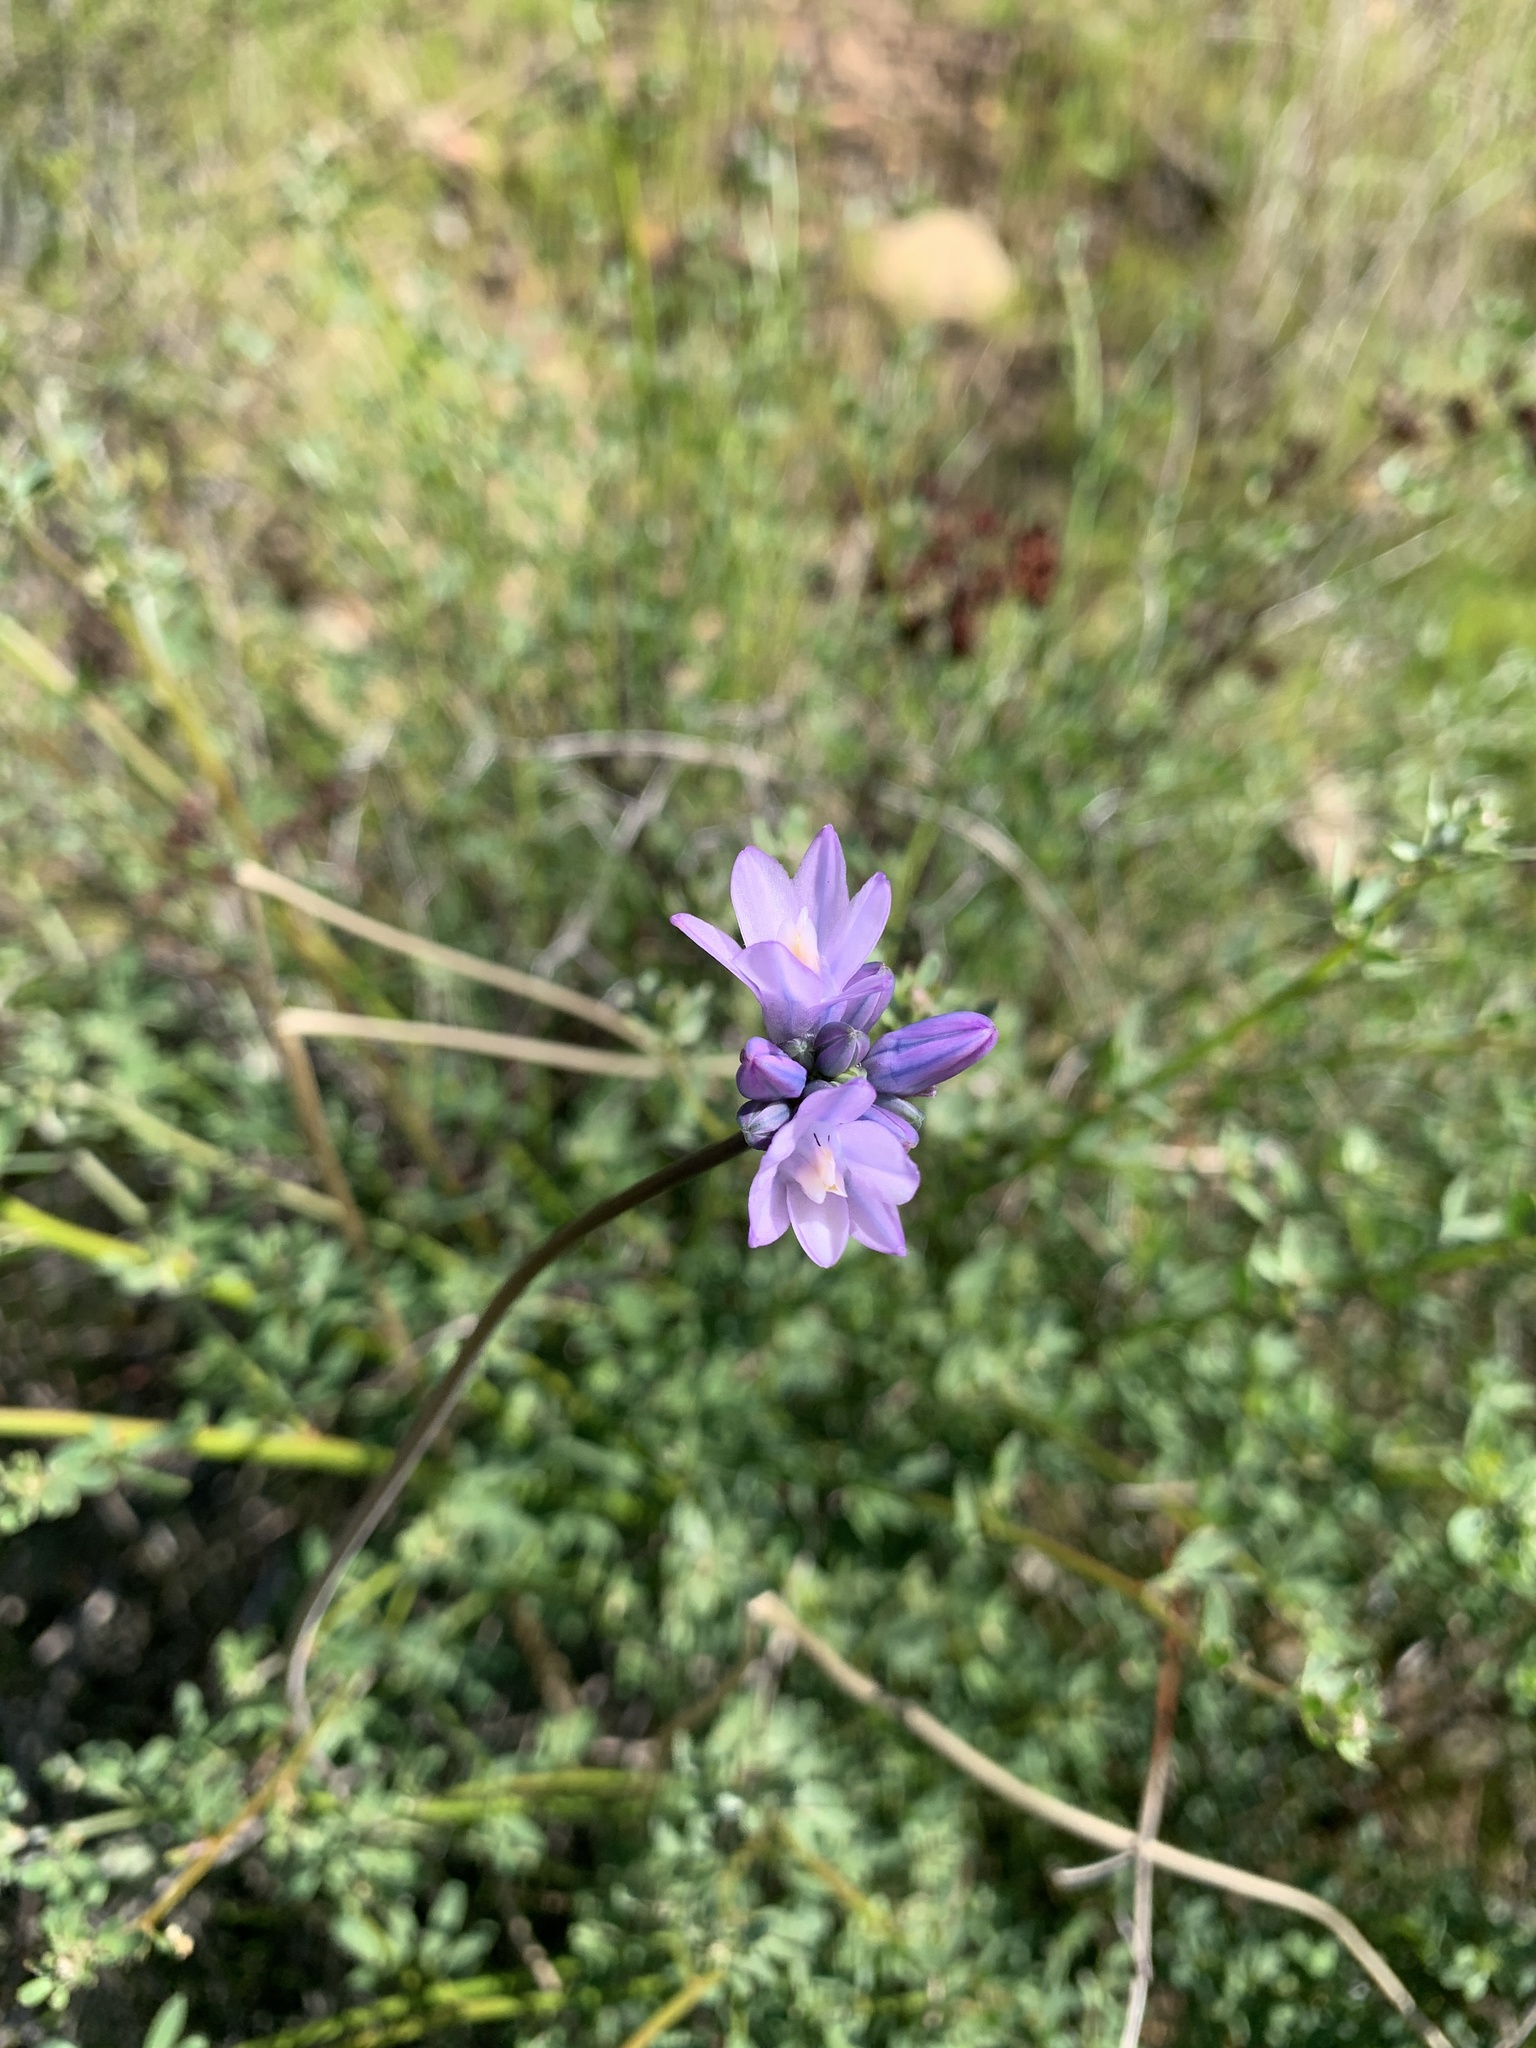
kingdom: Plantae
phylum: Tracheophyta
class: Liliopsida
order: Asparagales
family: Asparagaceae
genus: Dipterostemon
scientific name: Dipterostemon capitatus
